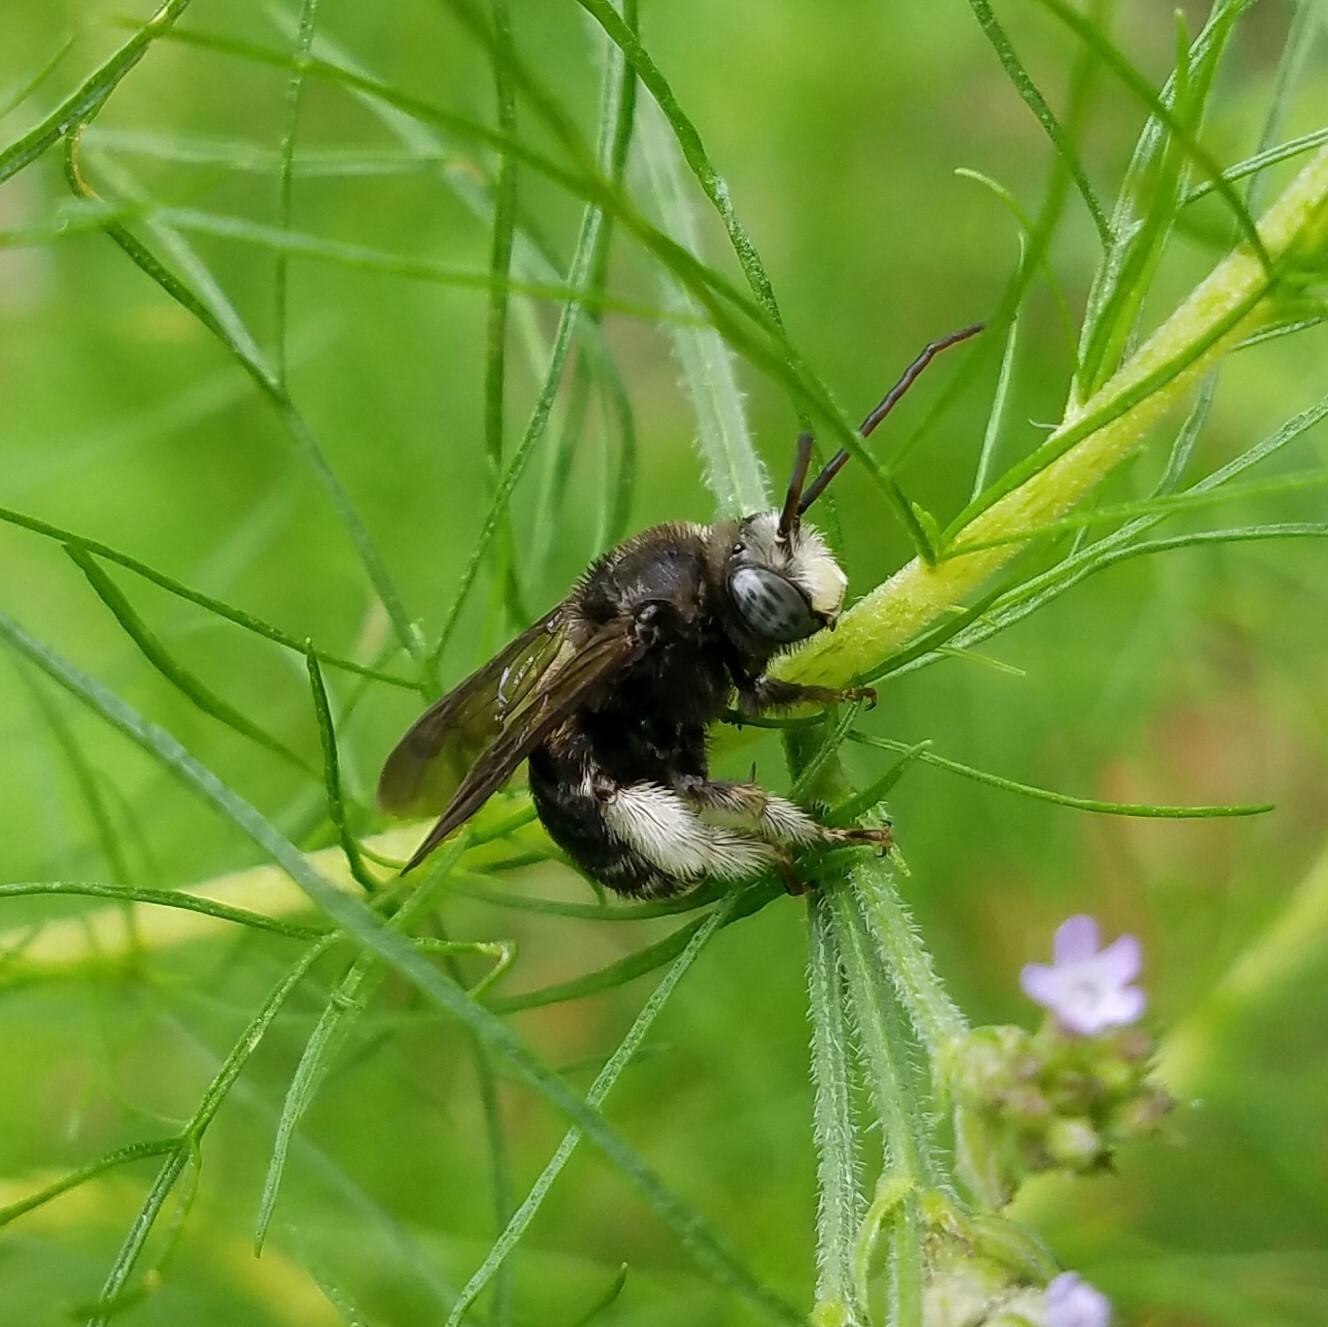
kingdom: Animalia
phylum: Arthropoda
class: Insecta
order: Hymenoptera
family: Apidae
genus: Melissodes
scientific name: Melissodes bimaculatus
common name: Two-spotted long-horned bee
